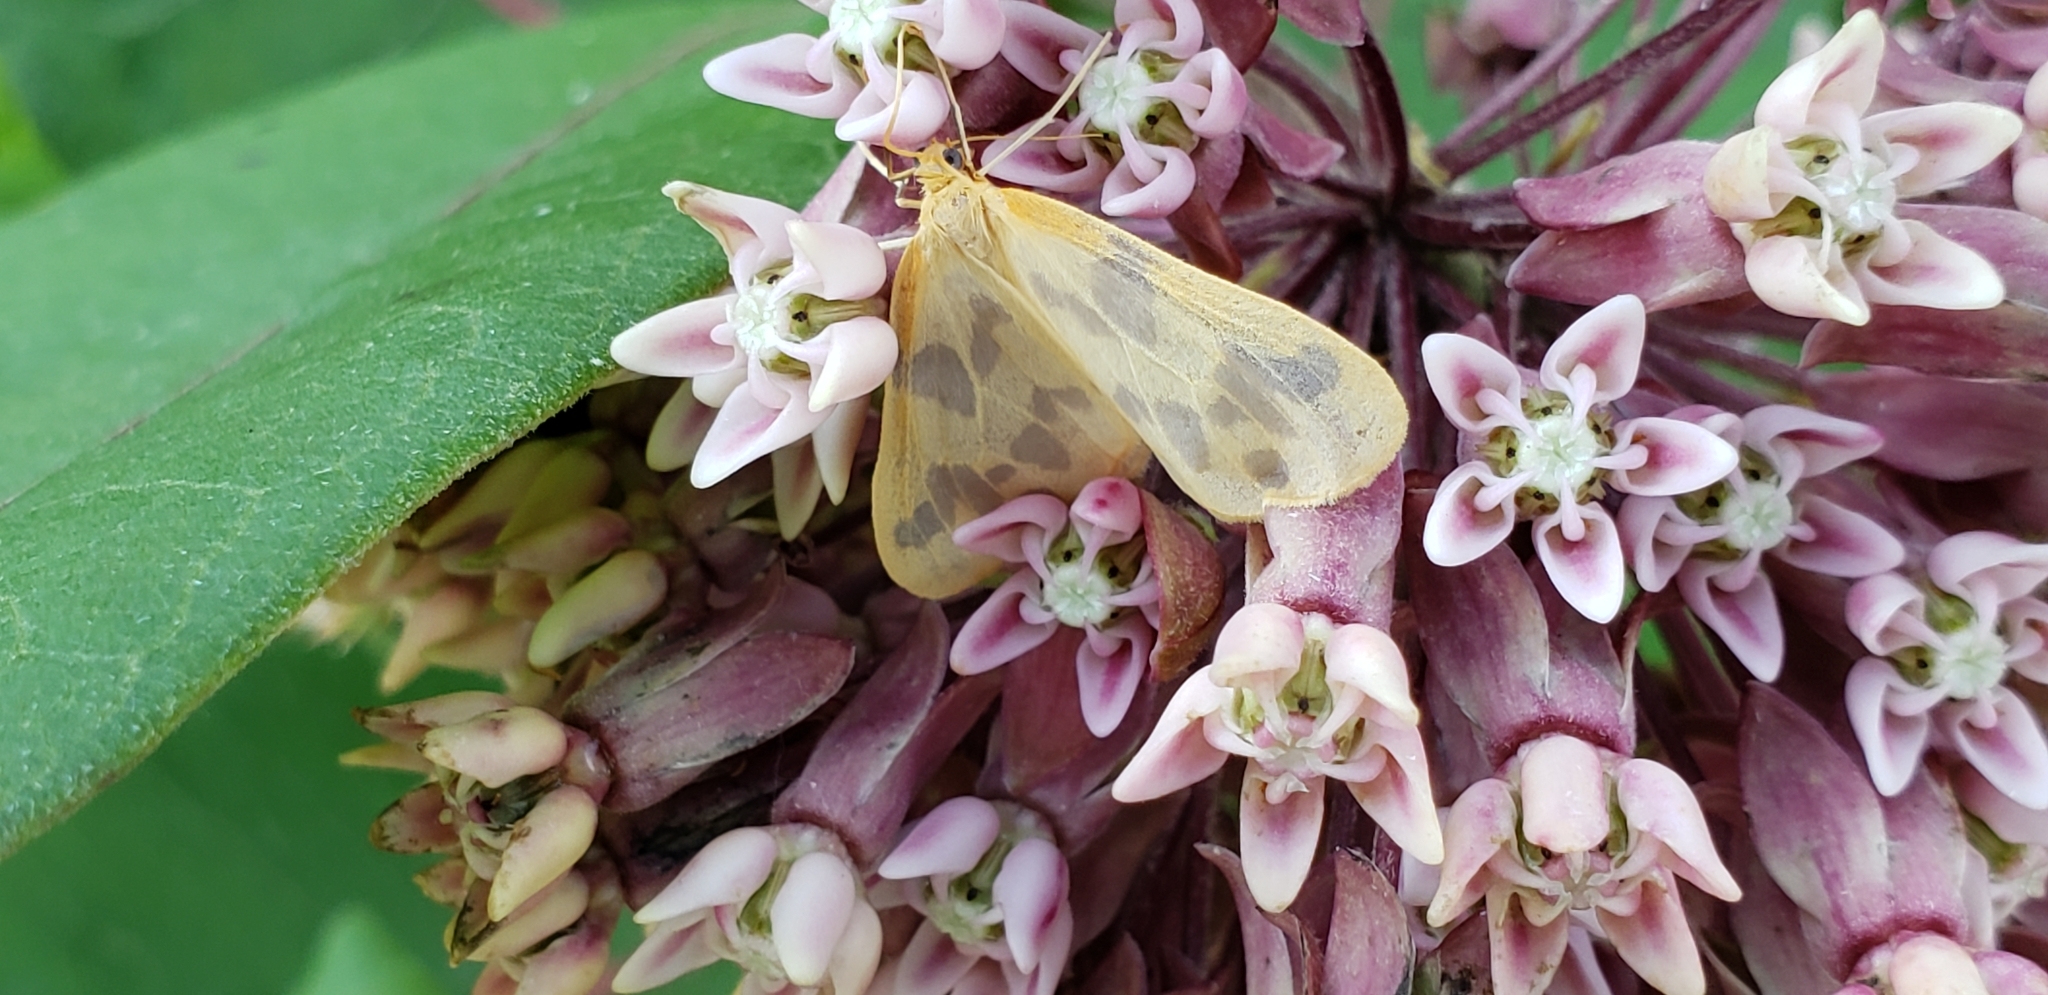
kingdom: Animalia
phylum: Arthropoda
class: Insecta
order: Lepidoptera
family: Geometridae
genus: Eubaphe
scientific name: Eubaphe mendica
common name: Beggar
